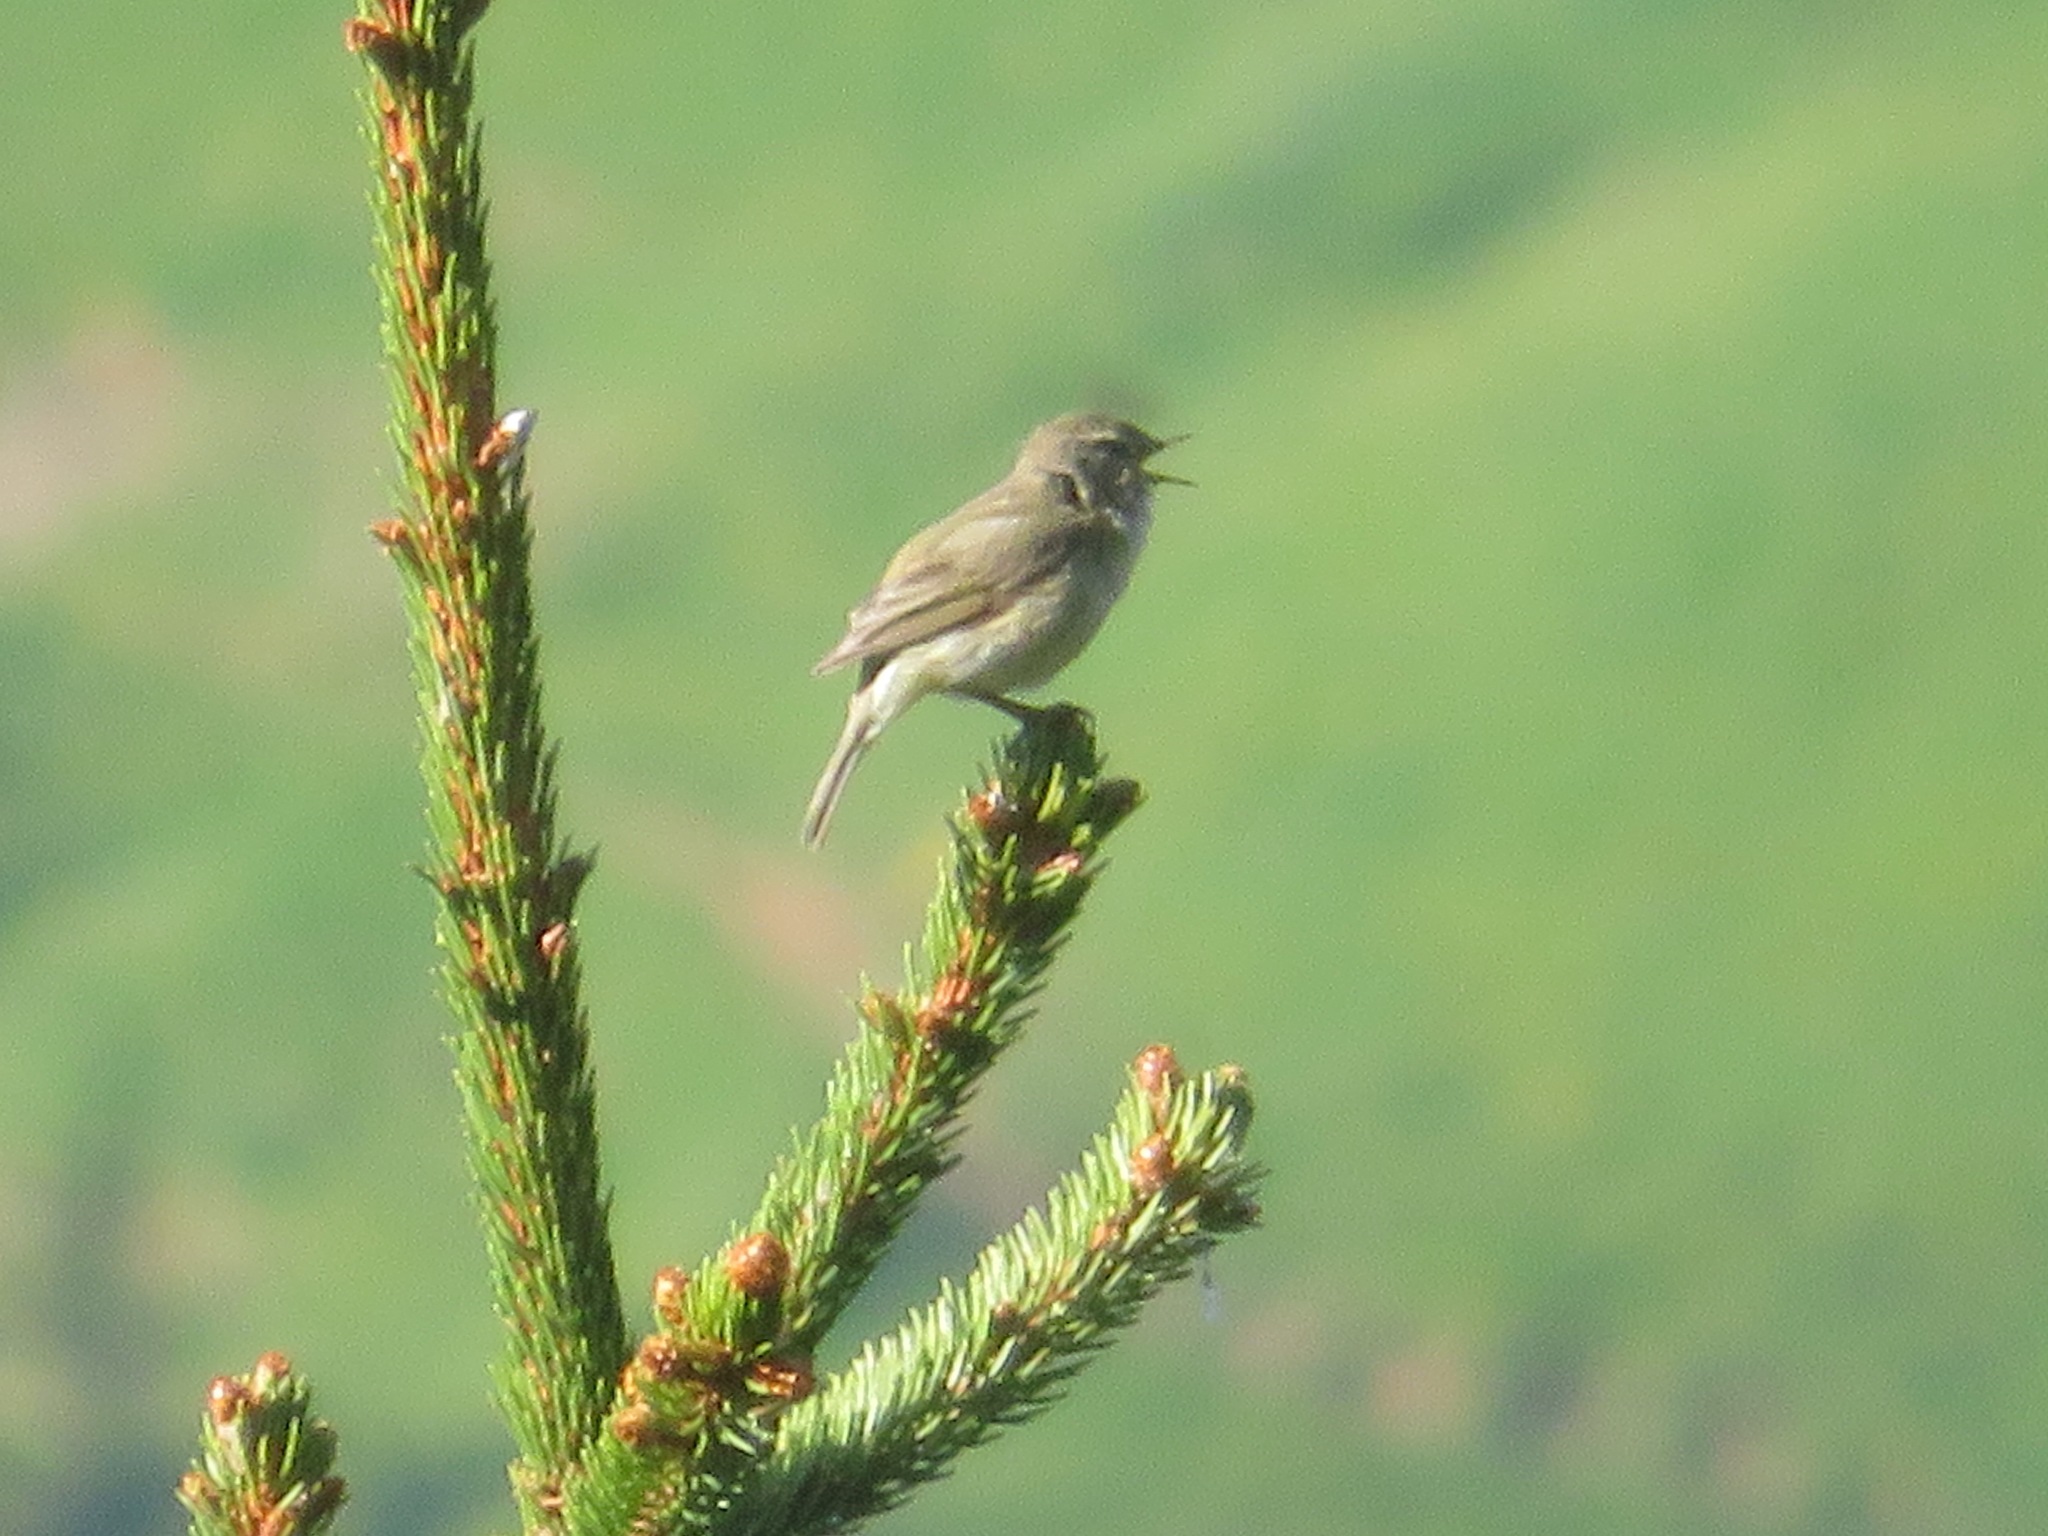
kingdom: Animalia
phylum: Chordata
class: Aves
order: Passeriformes
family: Phylloscopidae
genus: Phylloscopus
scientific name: Phylloscopus collybita
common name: Common chiffchaff
